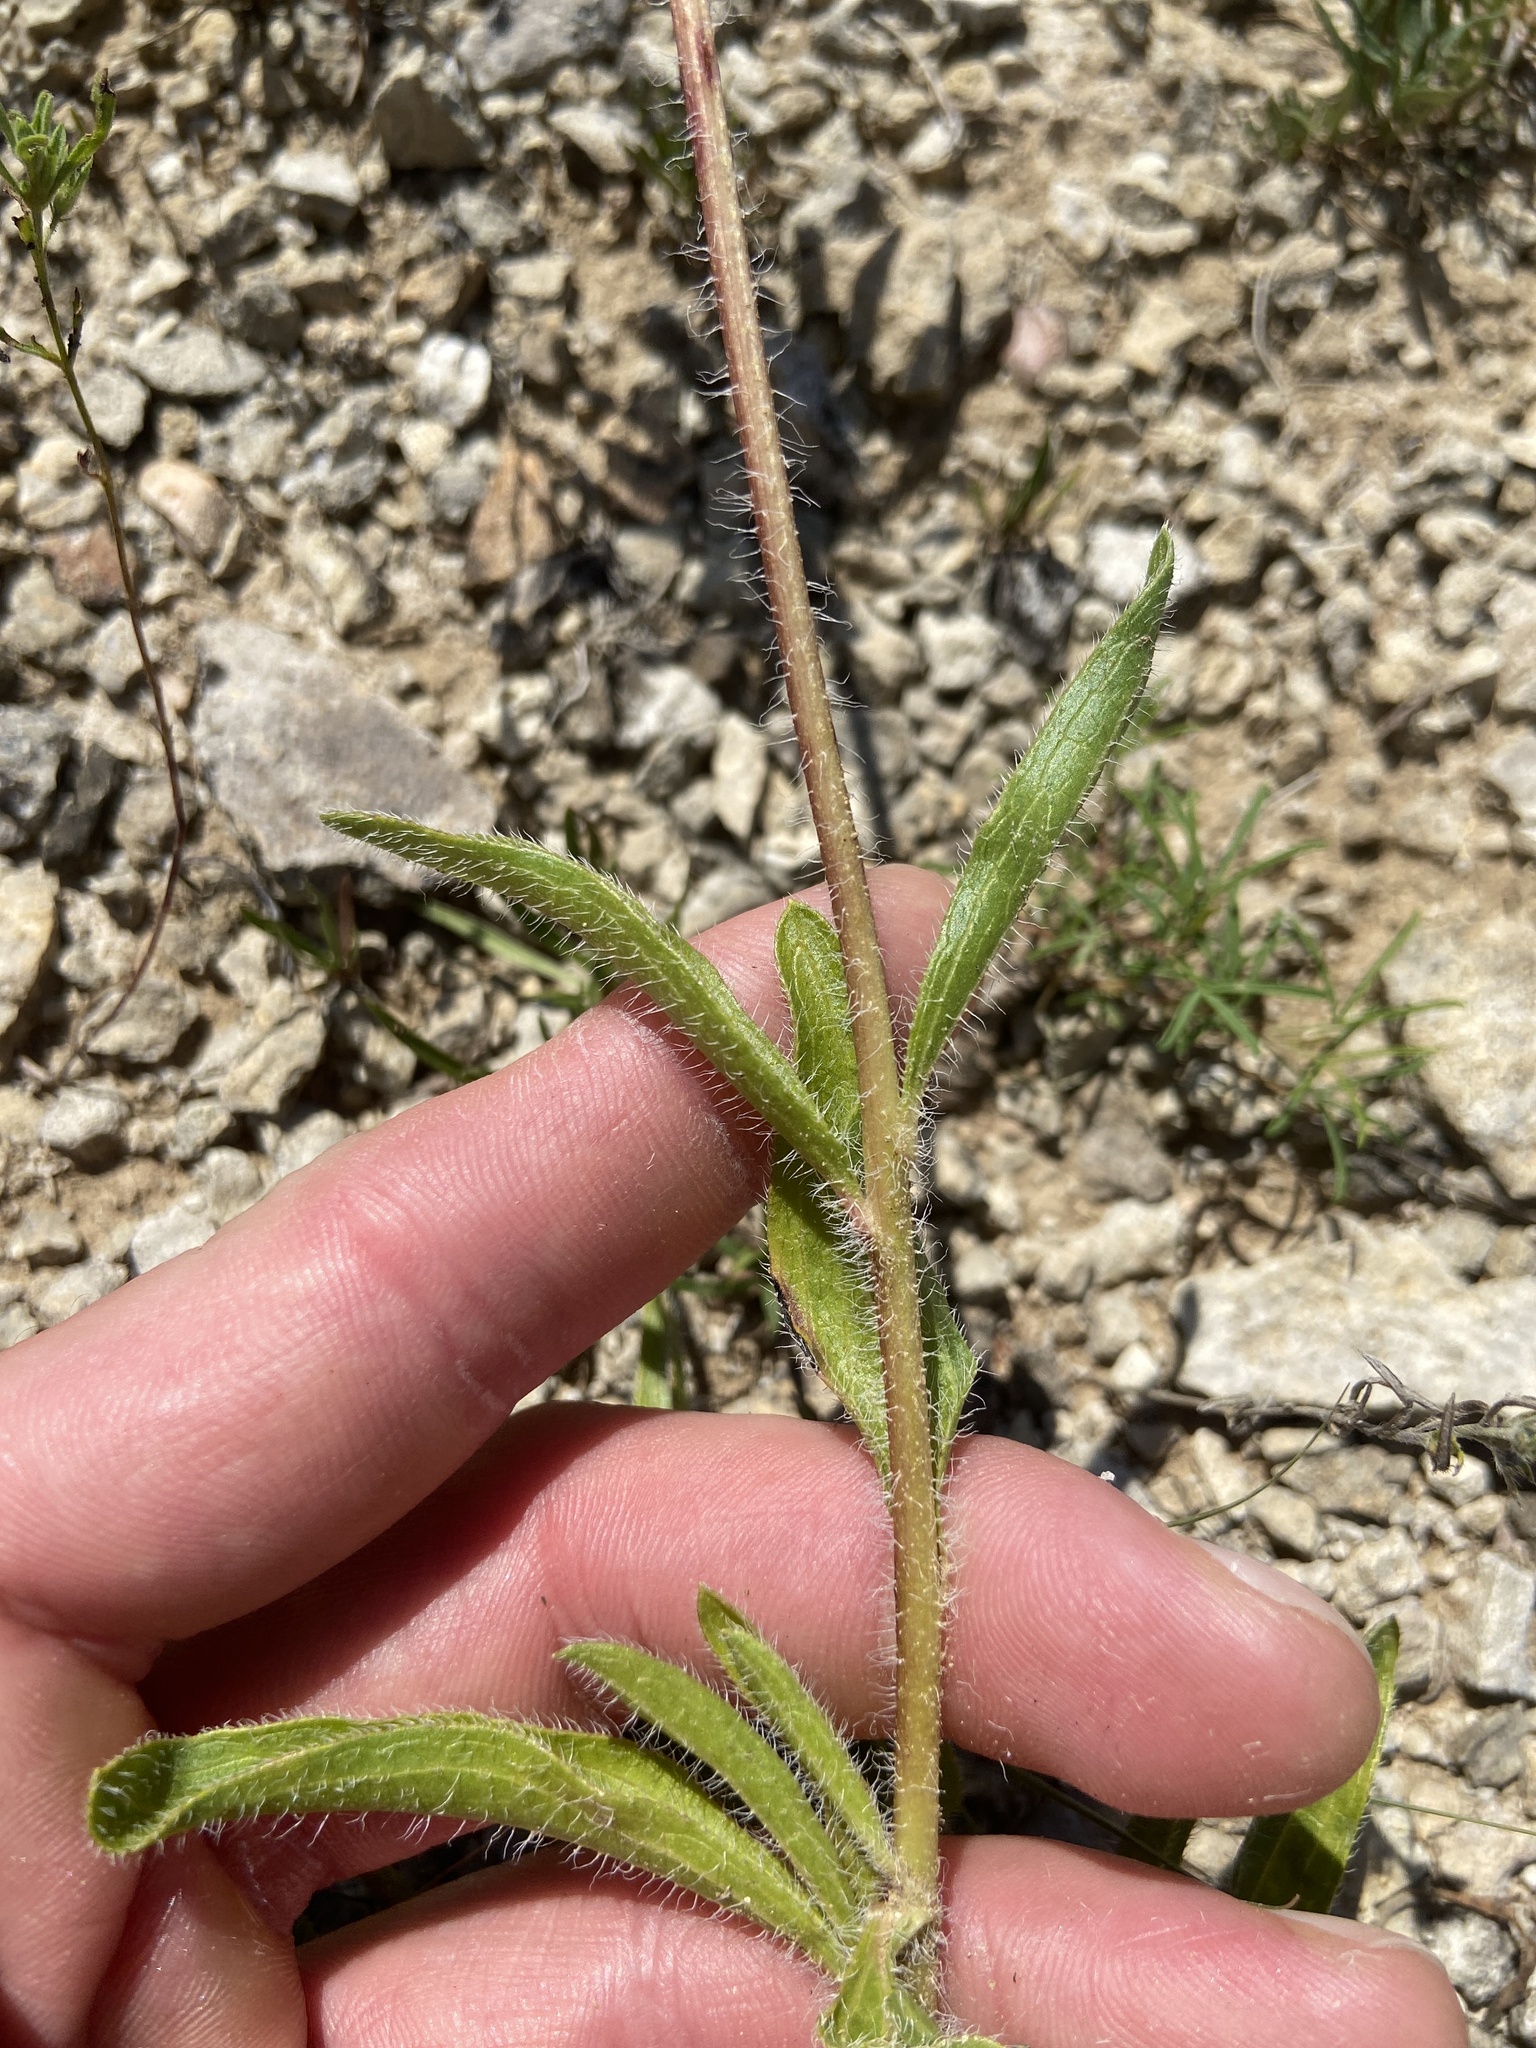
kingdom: Plantae
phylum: Tracheophyta
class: Magnoliopsida
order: Asterales
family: Asteraceae
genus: Echinacea
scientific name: Echinacea tennesseensis
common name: Tennessee purple-coneflower
